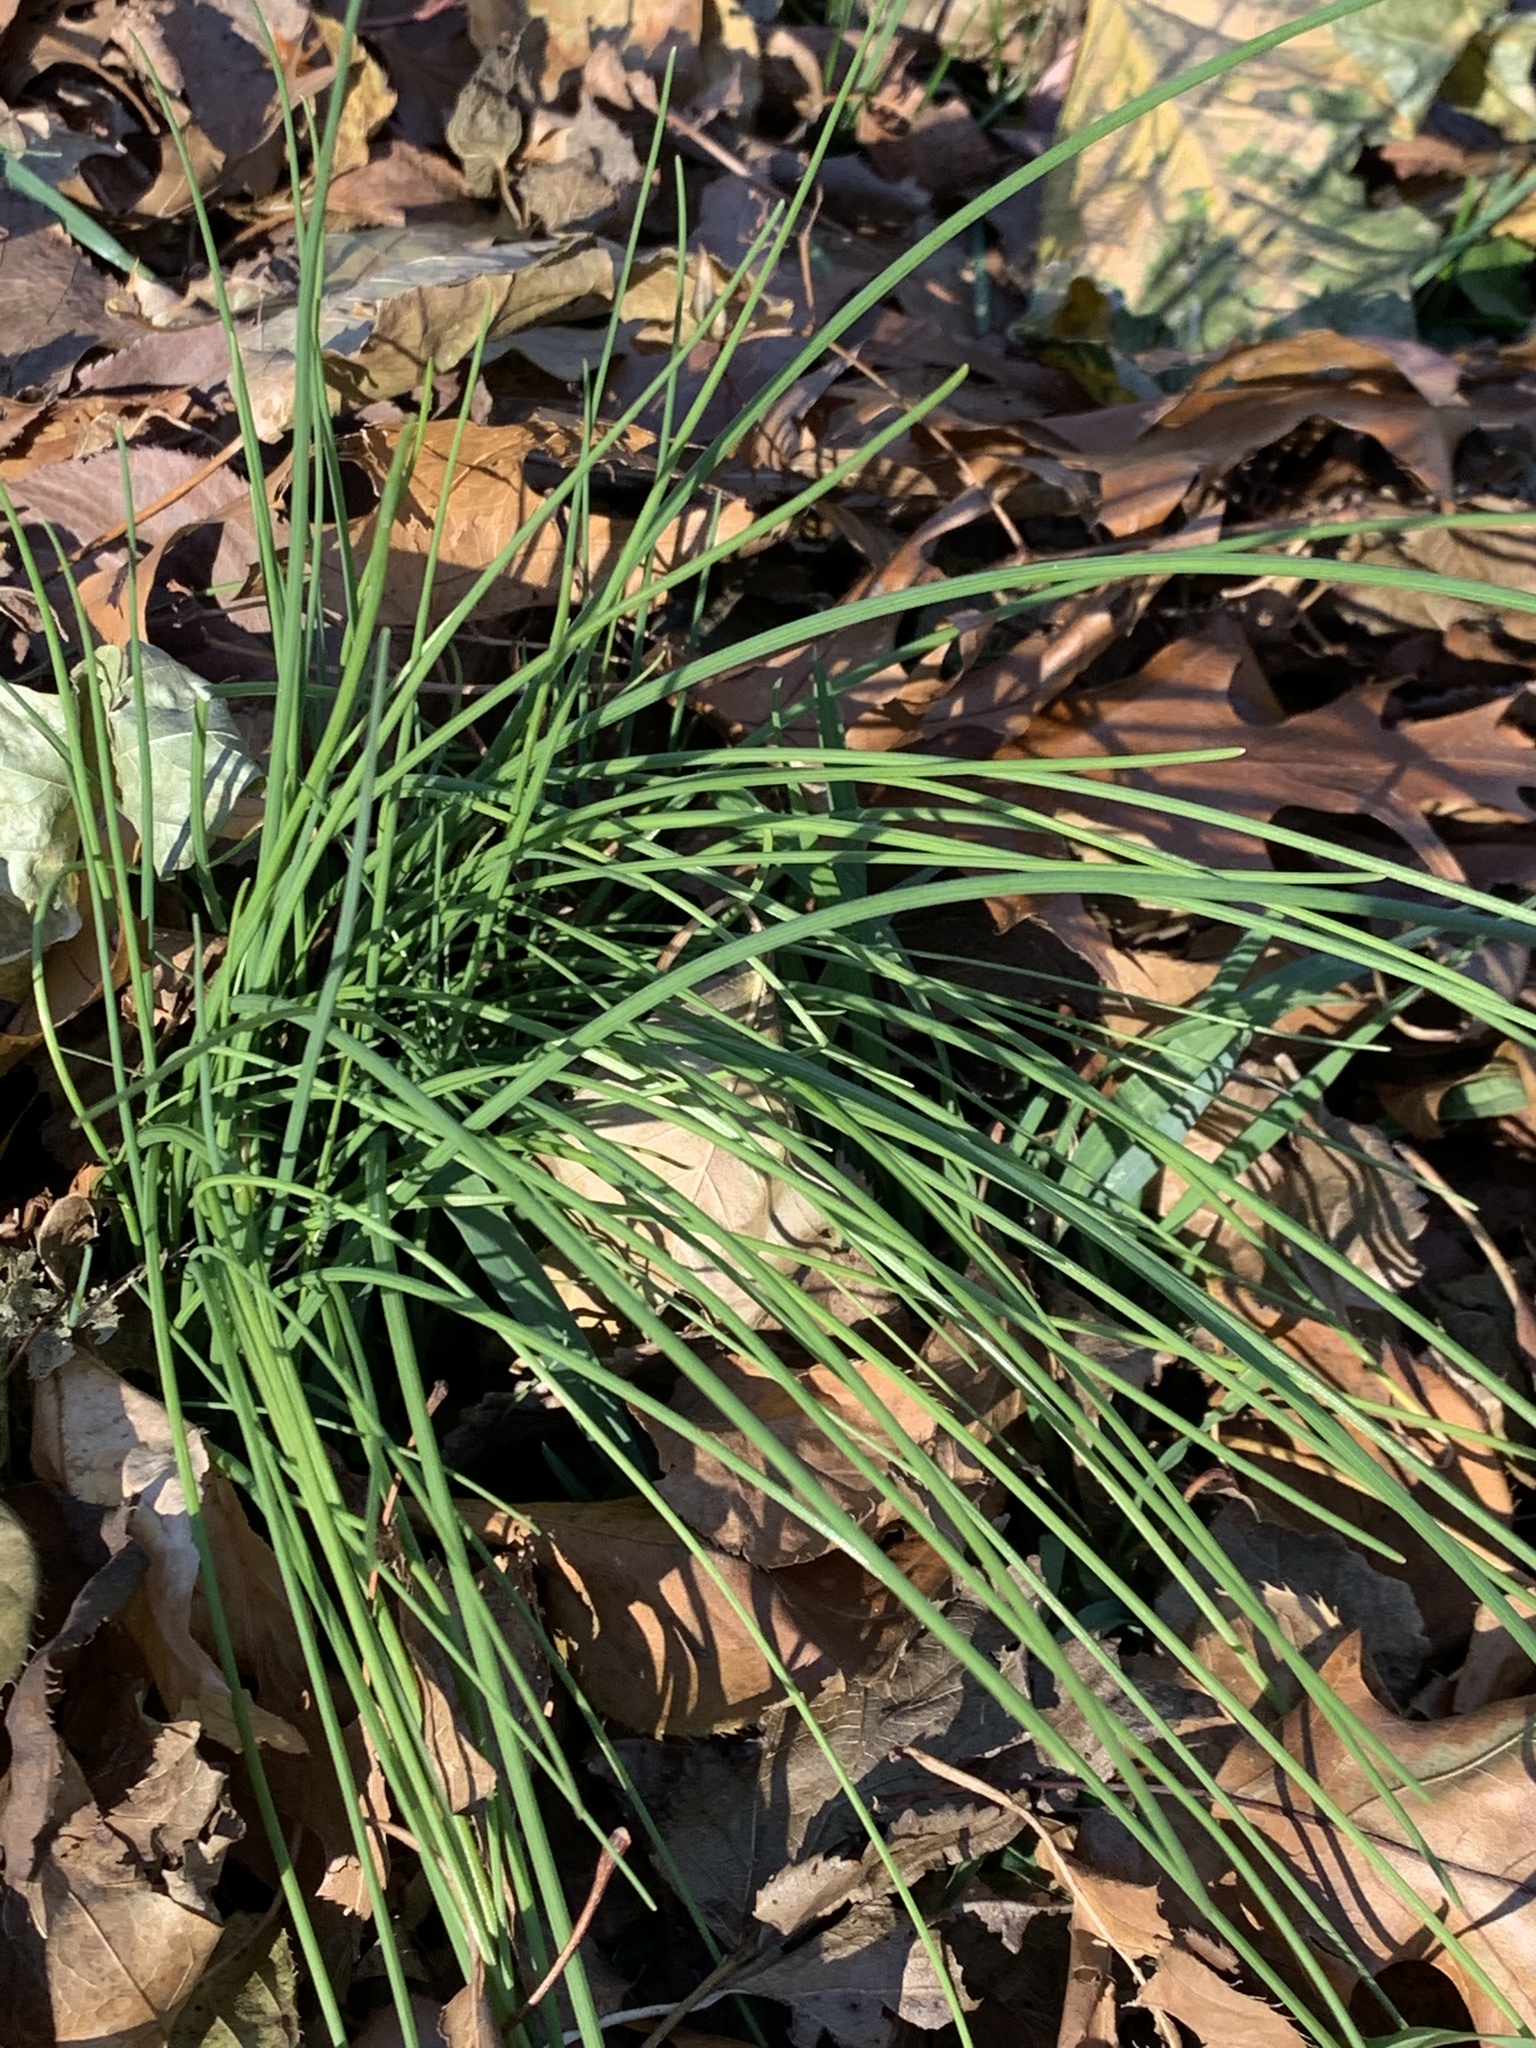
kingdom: Plantae
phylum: Tracheophyta
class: Liliopsida
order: Asparagales
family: Amaryllidaceae
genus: Allium
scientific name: Allium vineale
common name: Crow garlic
